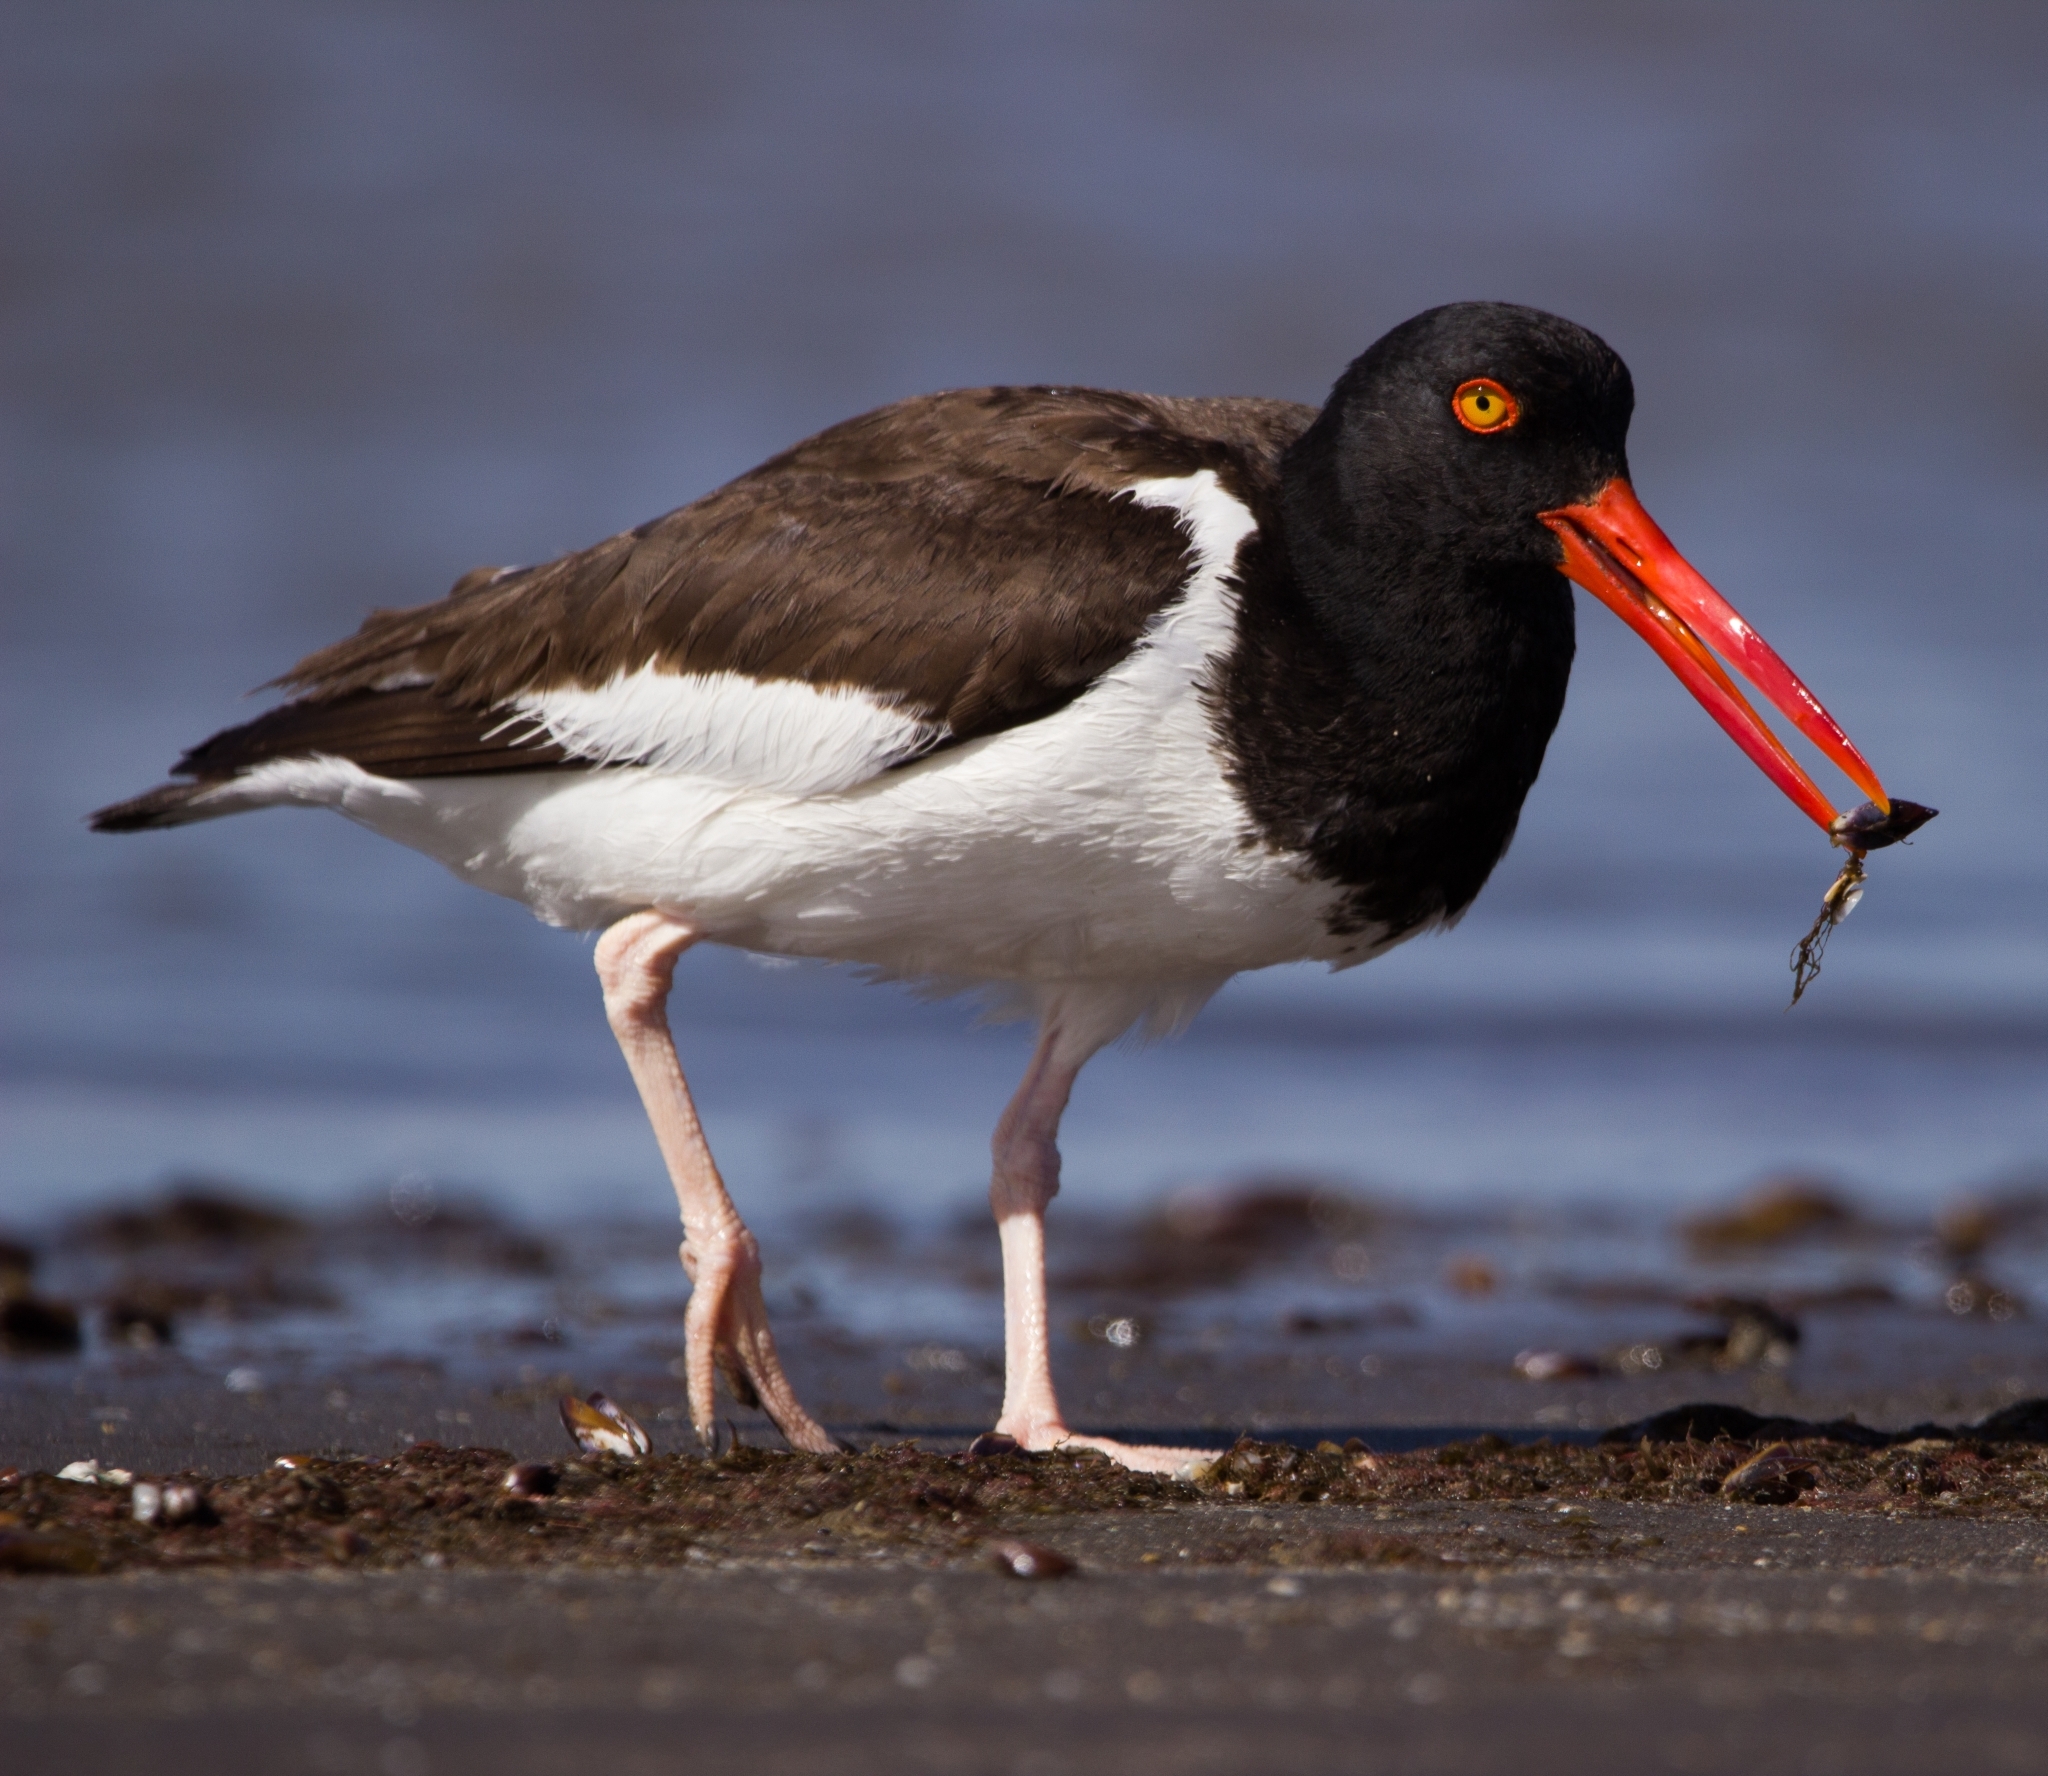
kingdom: Animalia
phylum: Chordata
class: Aves
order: Charadriiformes
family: Haematopodidae
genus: Haematopus
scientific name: Haematopus palliatus
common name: American oystercatcher
